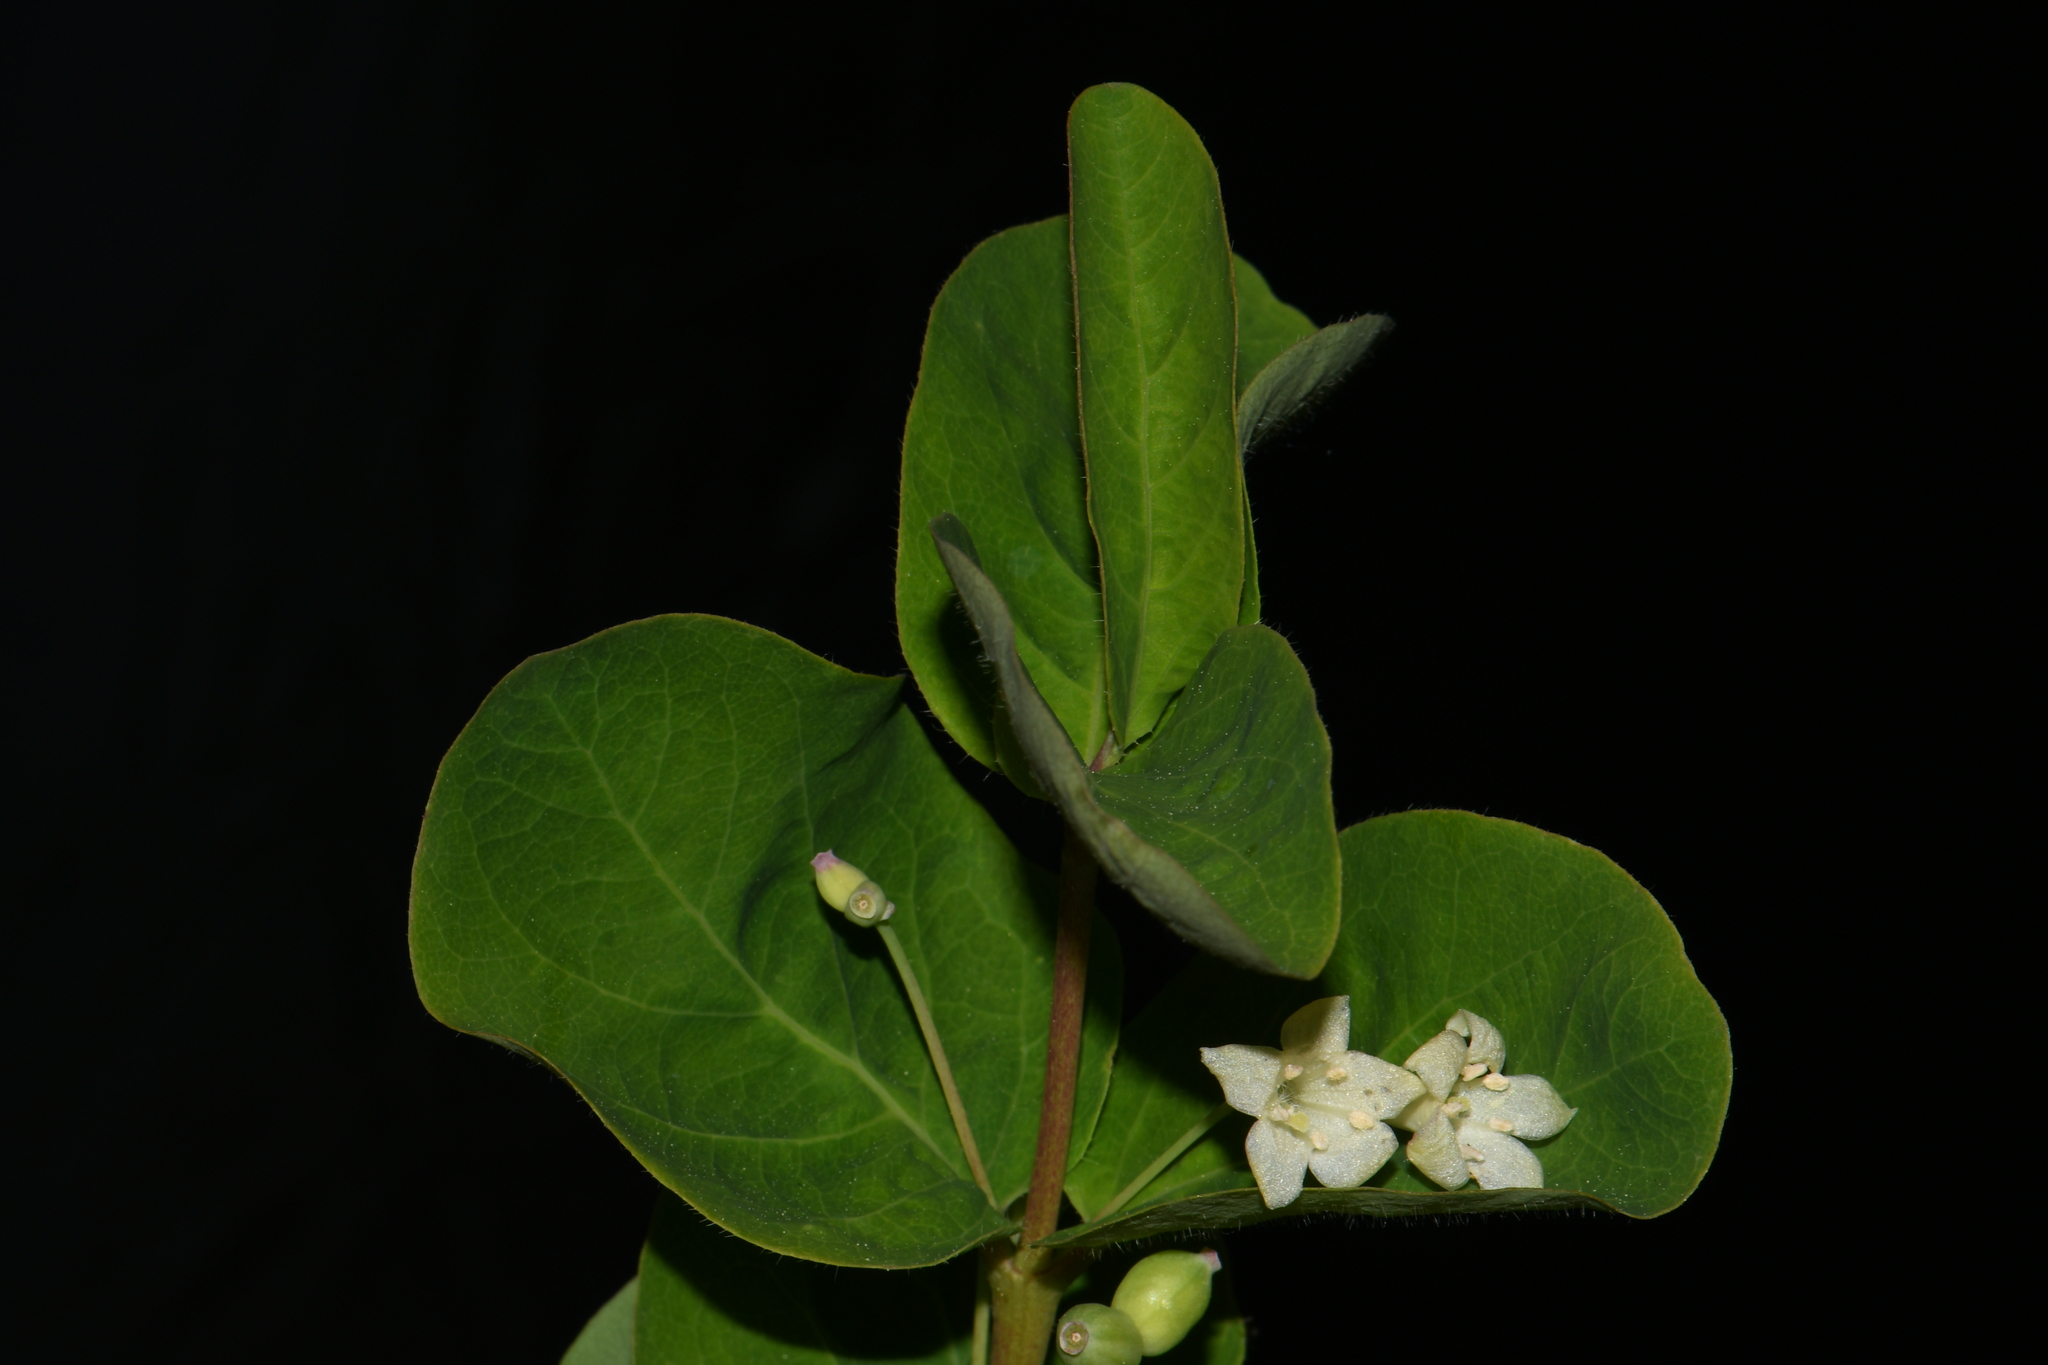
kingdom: Plantae
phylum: Tracheophyta
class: Magnoliopsida
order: Dipsacales
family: Caprifoliaceae
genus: Lonicera
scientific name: Lonicera utahensis
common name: Utah honeysuckle
